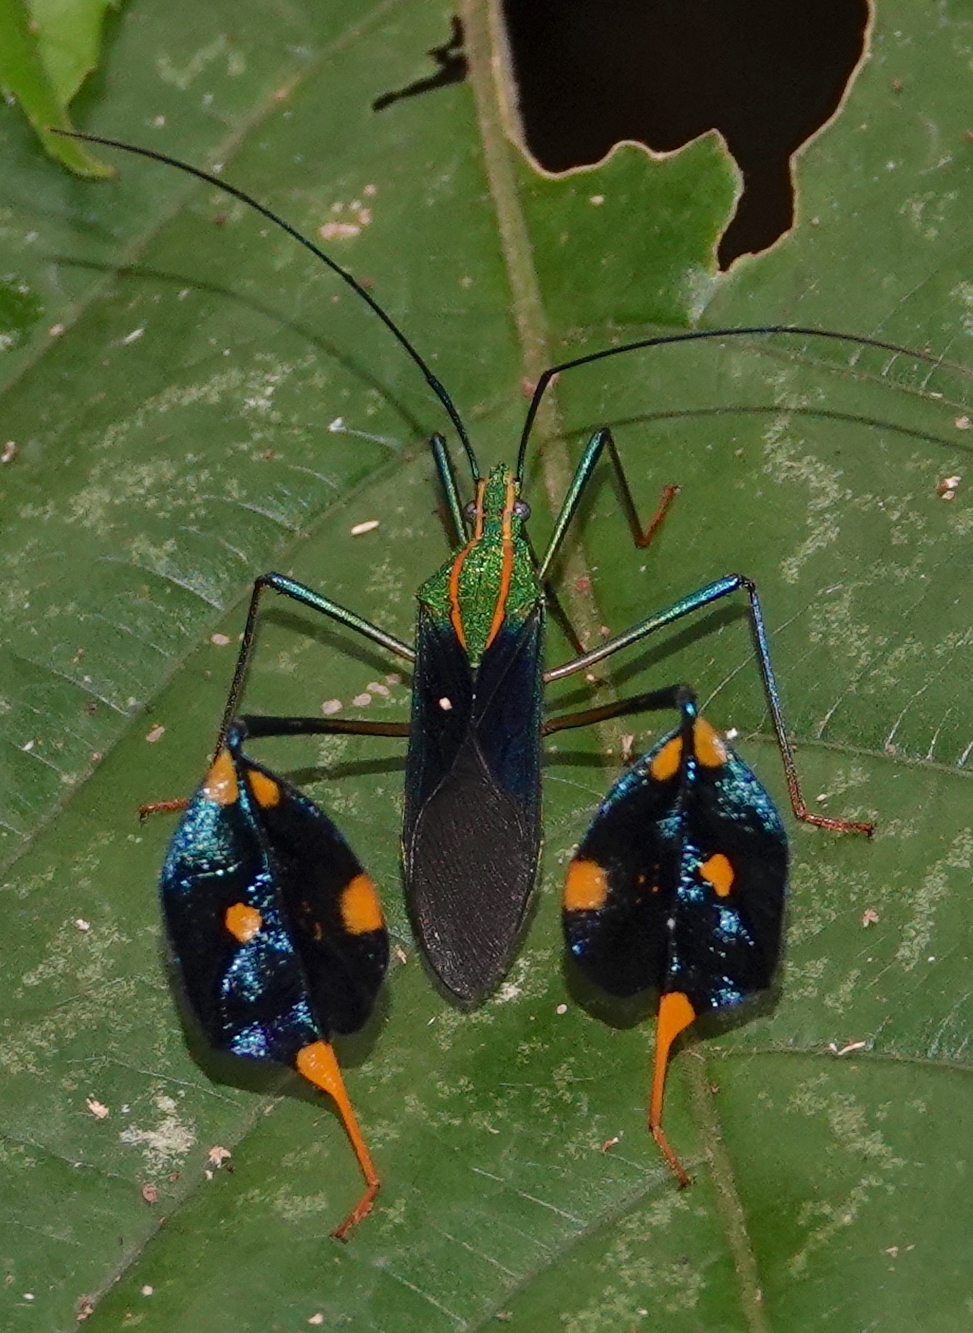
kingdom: Animalia
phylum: Arthropoda
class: Insecta
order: Hemiptera
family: Coreidae
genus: Diactor
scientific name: Diactor bilineatus
